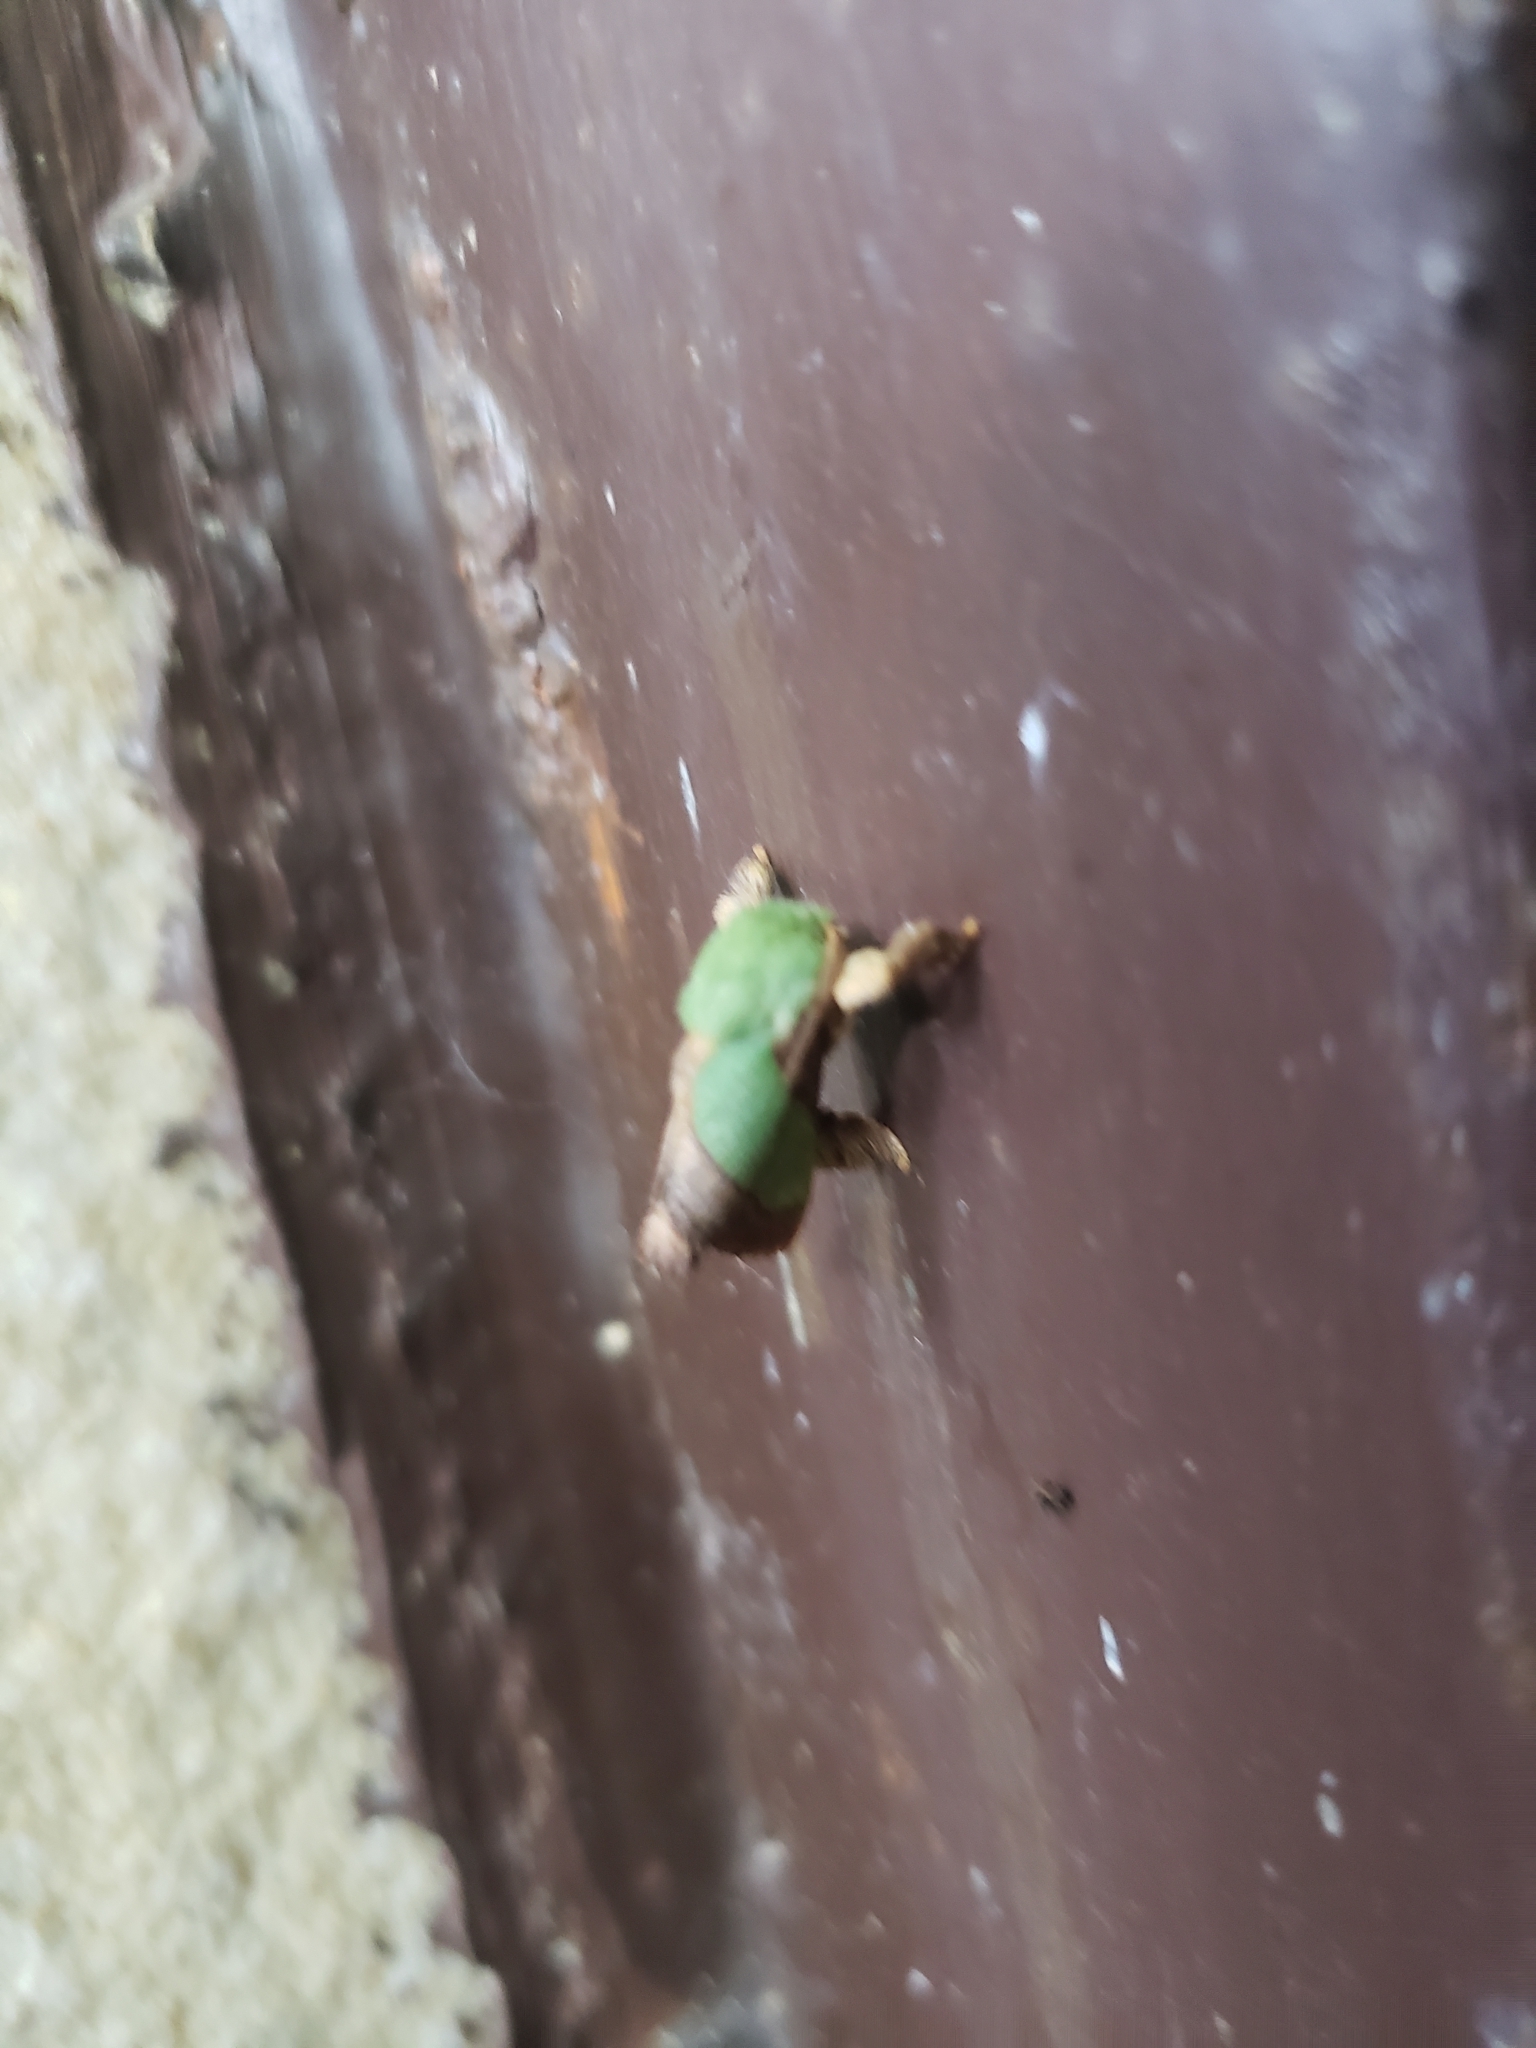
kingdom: Animalia
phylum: Arthropoda
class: Insecta
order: Lepidoptera
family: Limacodidae
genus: Parasa
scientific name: Parasa chloris
